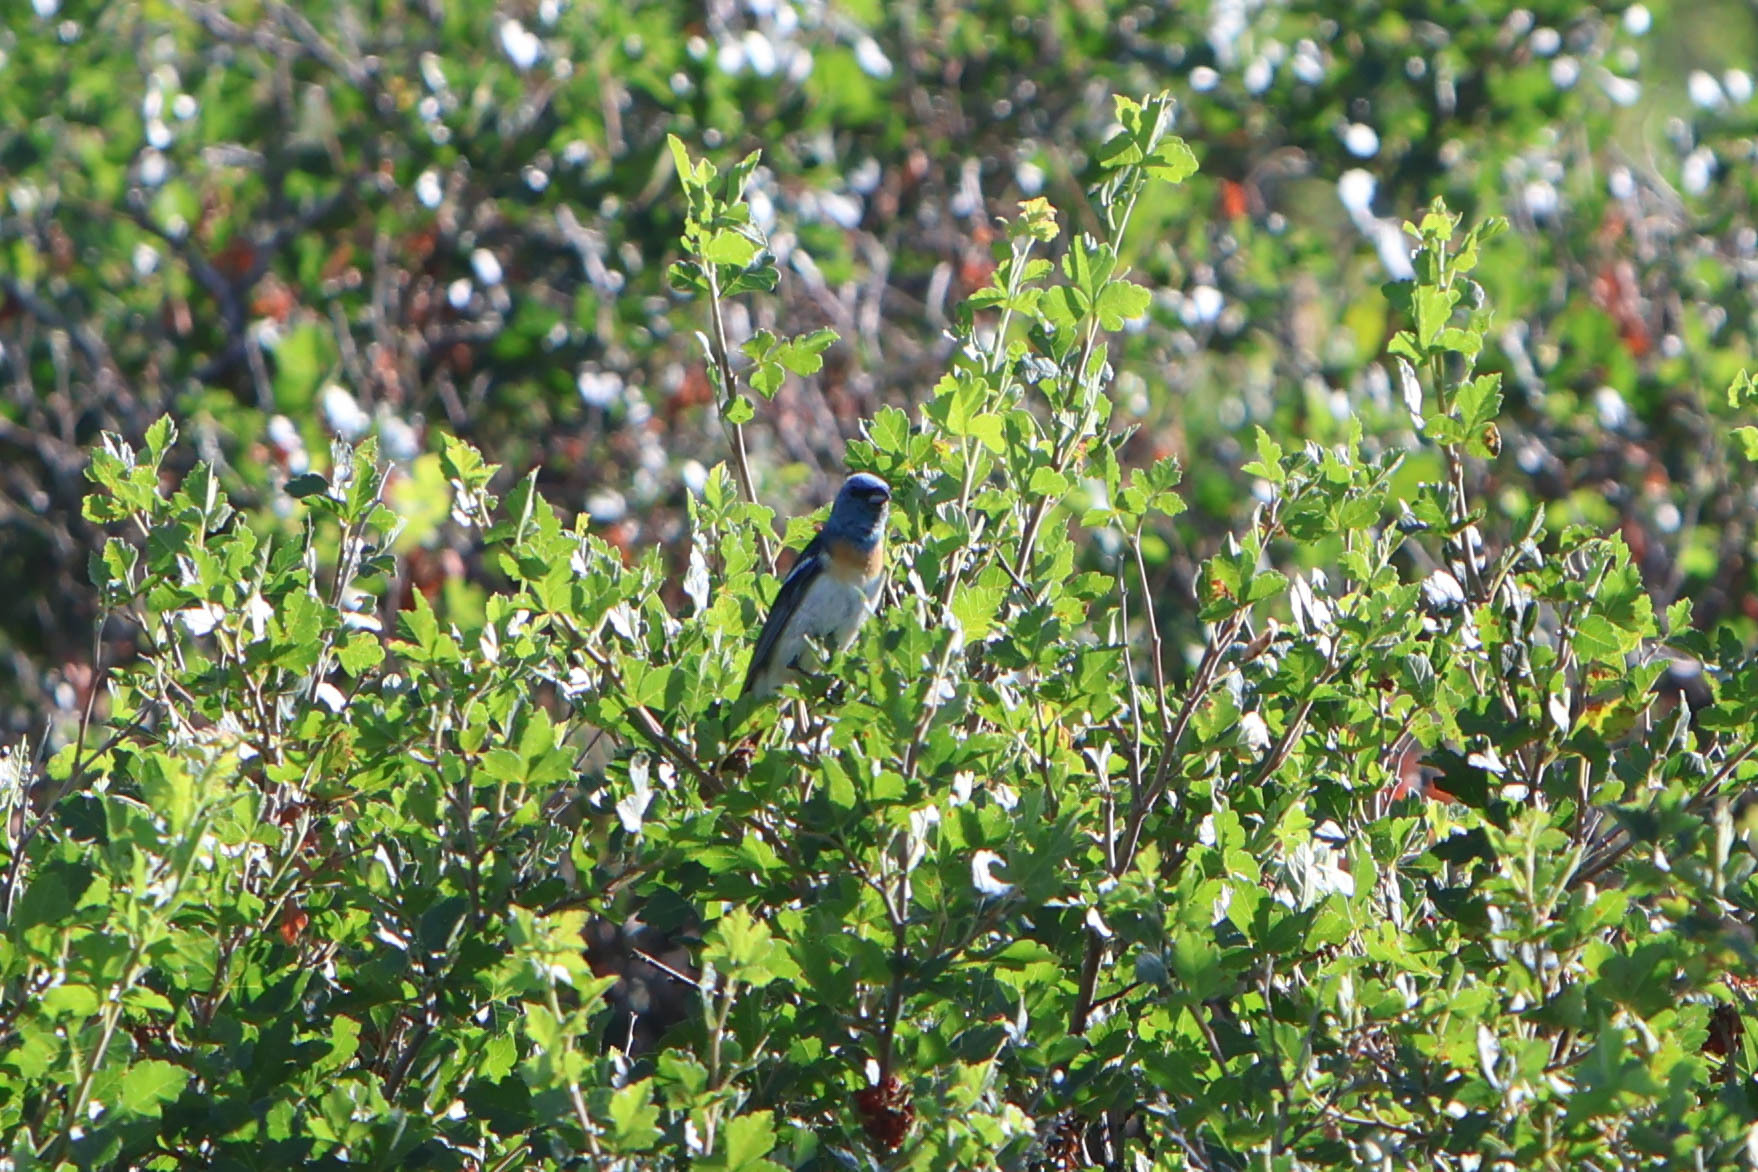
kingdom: Animalia
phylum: Chordata
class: Aves
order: Passeriformes
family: Cardinalidae
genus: Passerina
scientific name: Passerina amoena
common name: Lazuli bunting
